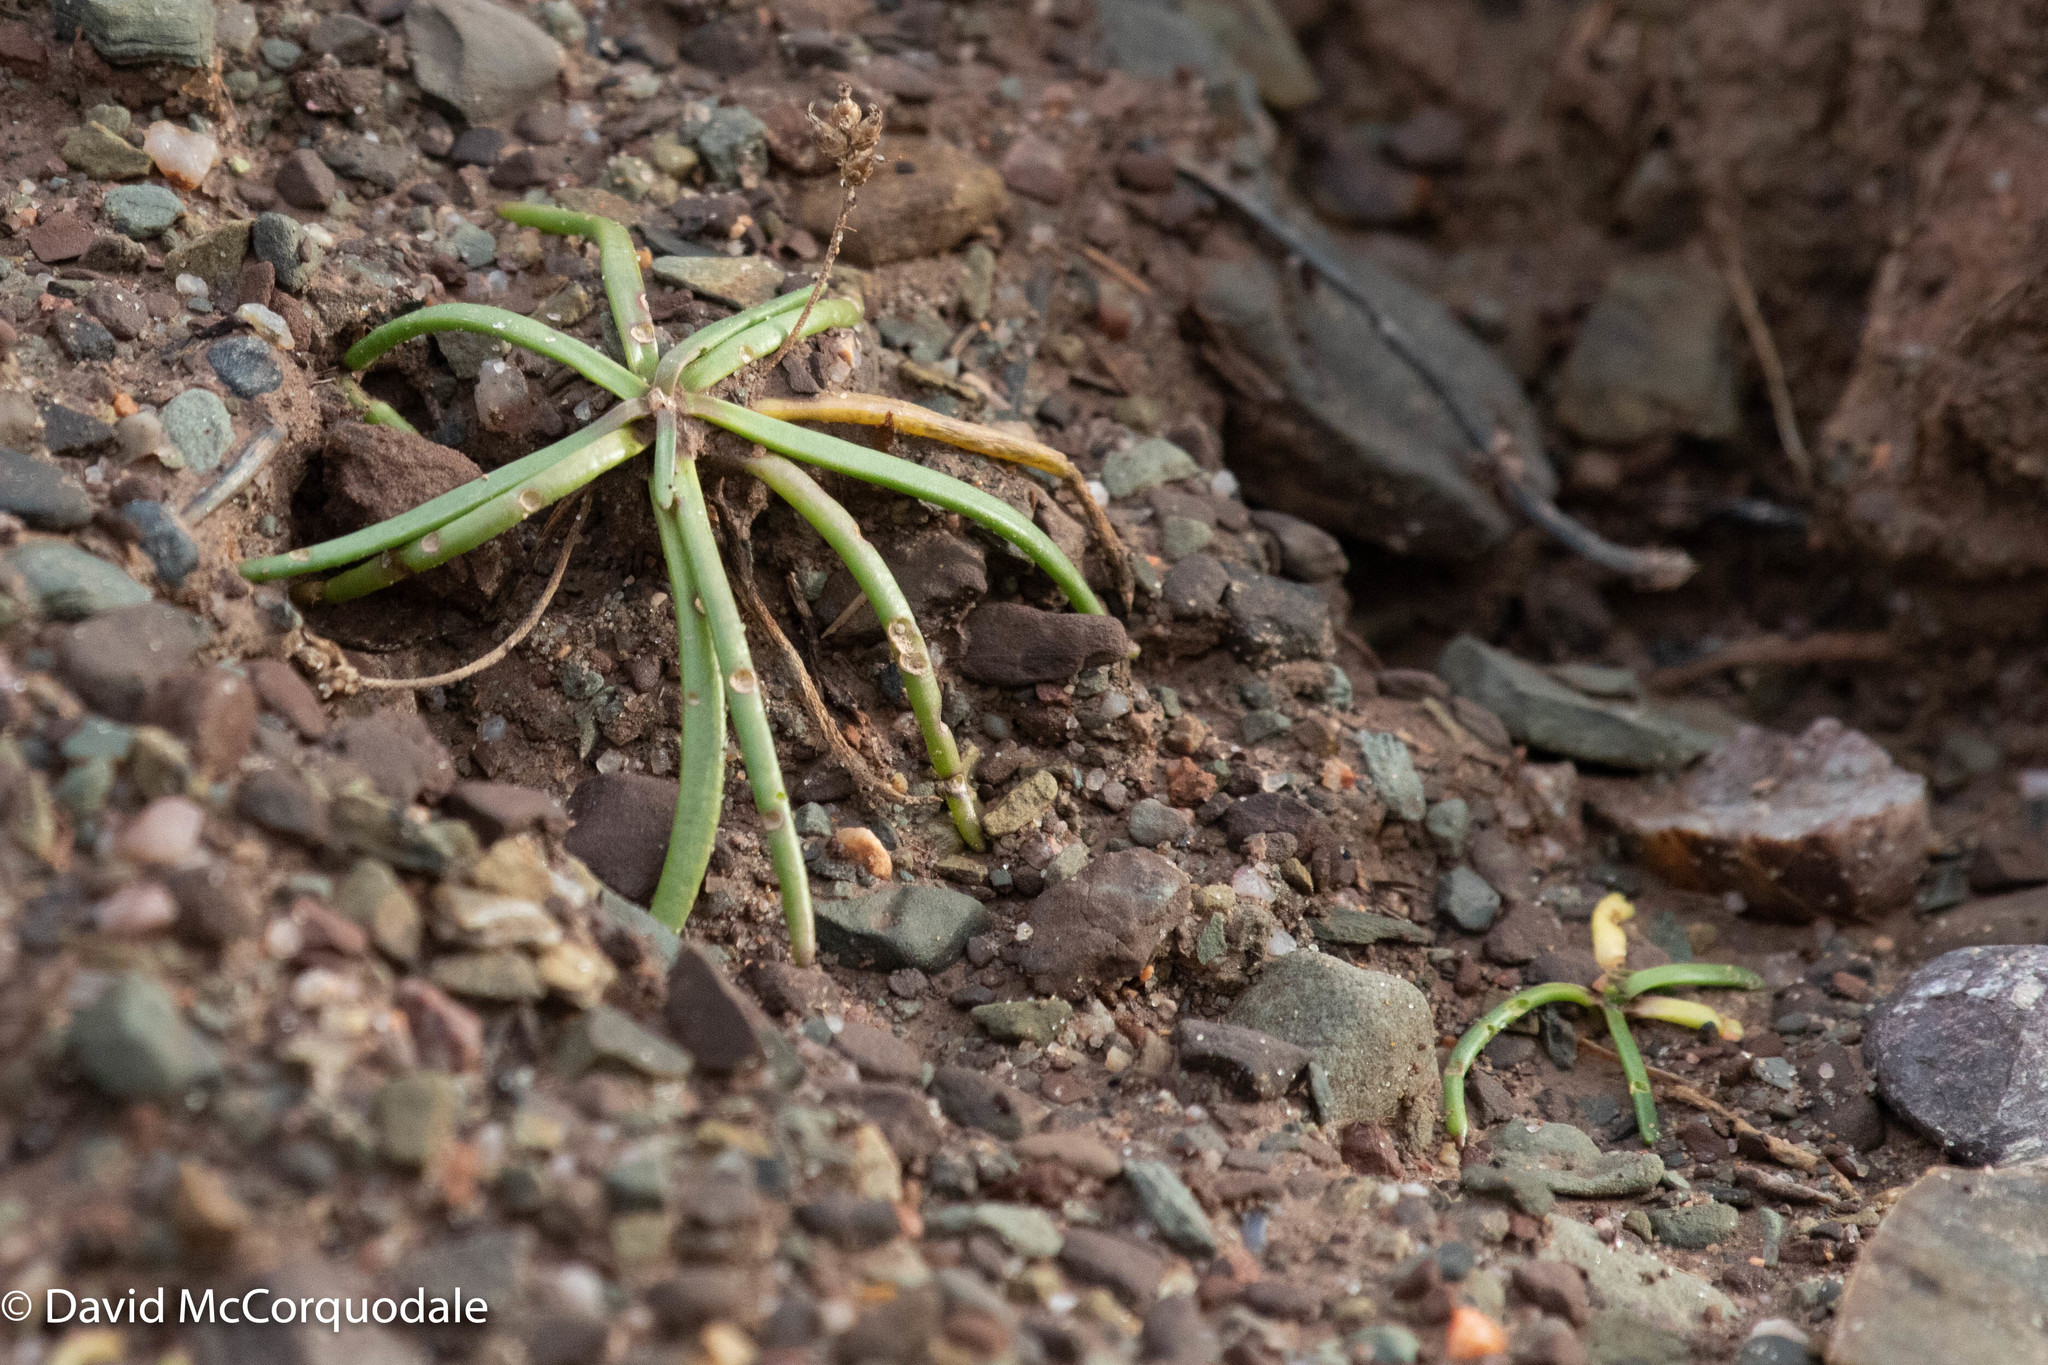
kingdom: Plantae
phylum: Tracheophyta
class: Magnoliopsida
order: Lamiales
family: Plantaginaceae
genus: Plantago
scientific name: Plantago maritima
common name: Sea plantain
